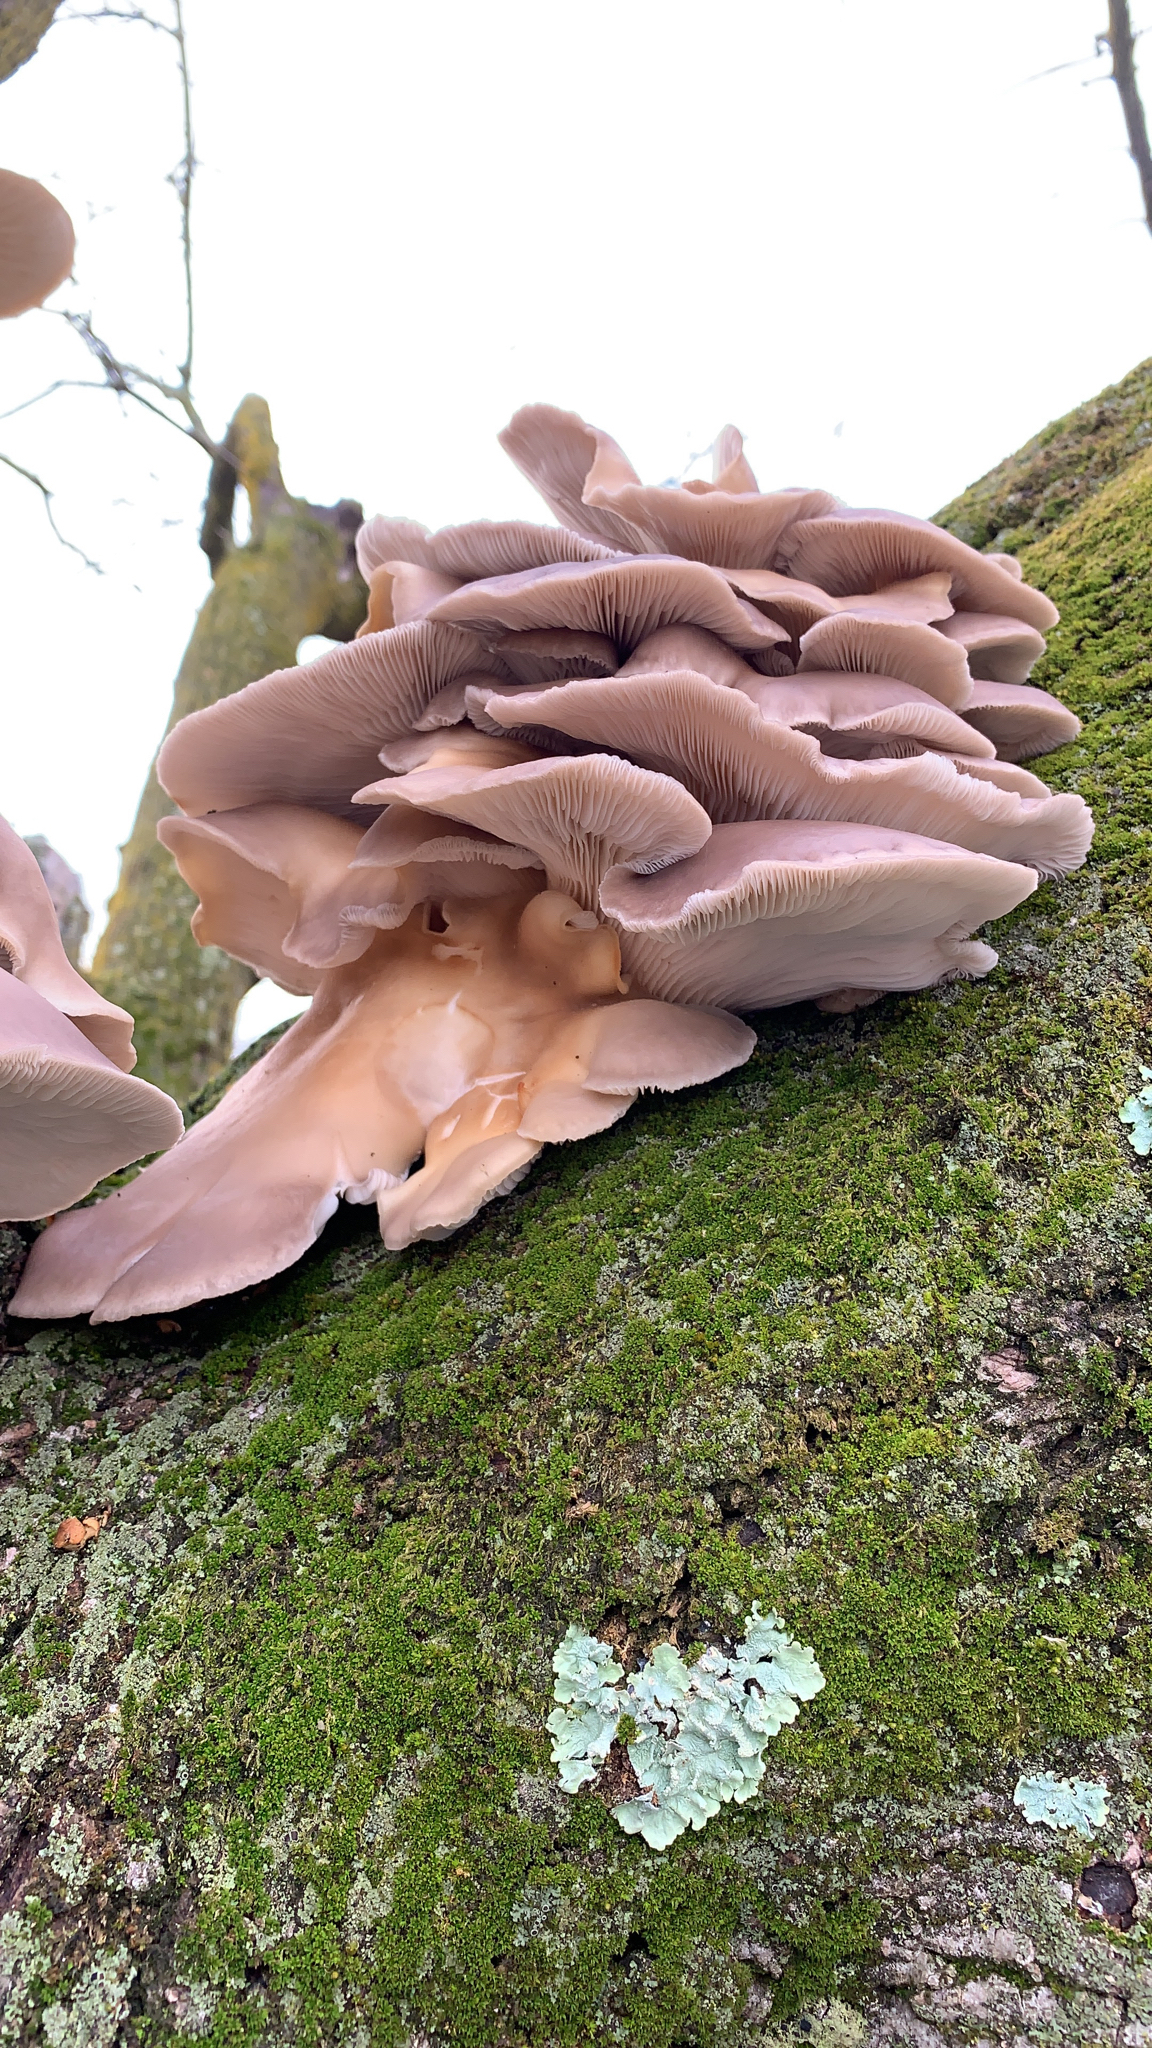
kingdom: Fungi
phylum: Basidiomycota
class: Agaricomycetes
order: Agaricales
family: Pleurotaceae
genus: Pleurotus
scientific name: Pleurotus ostreatus
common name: Oyster mushroom
